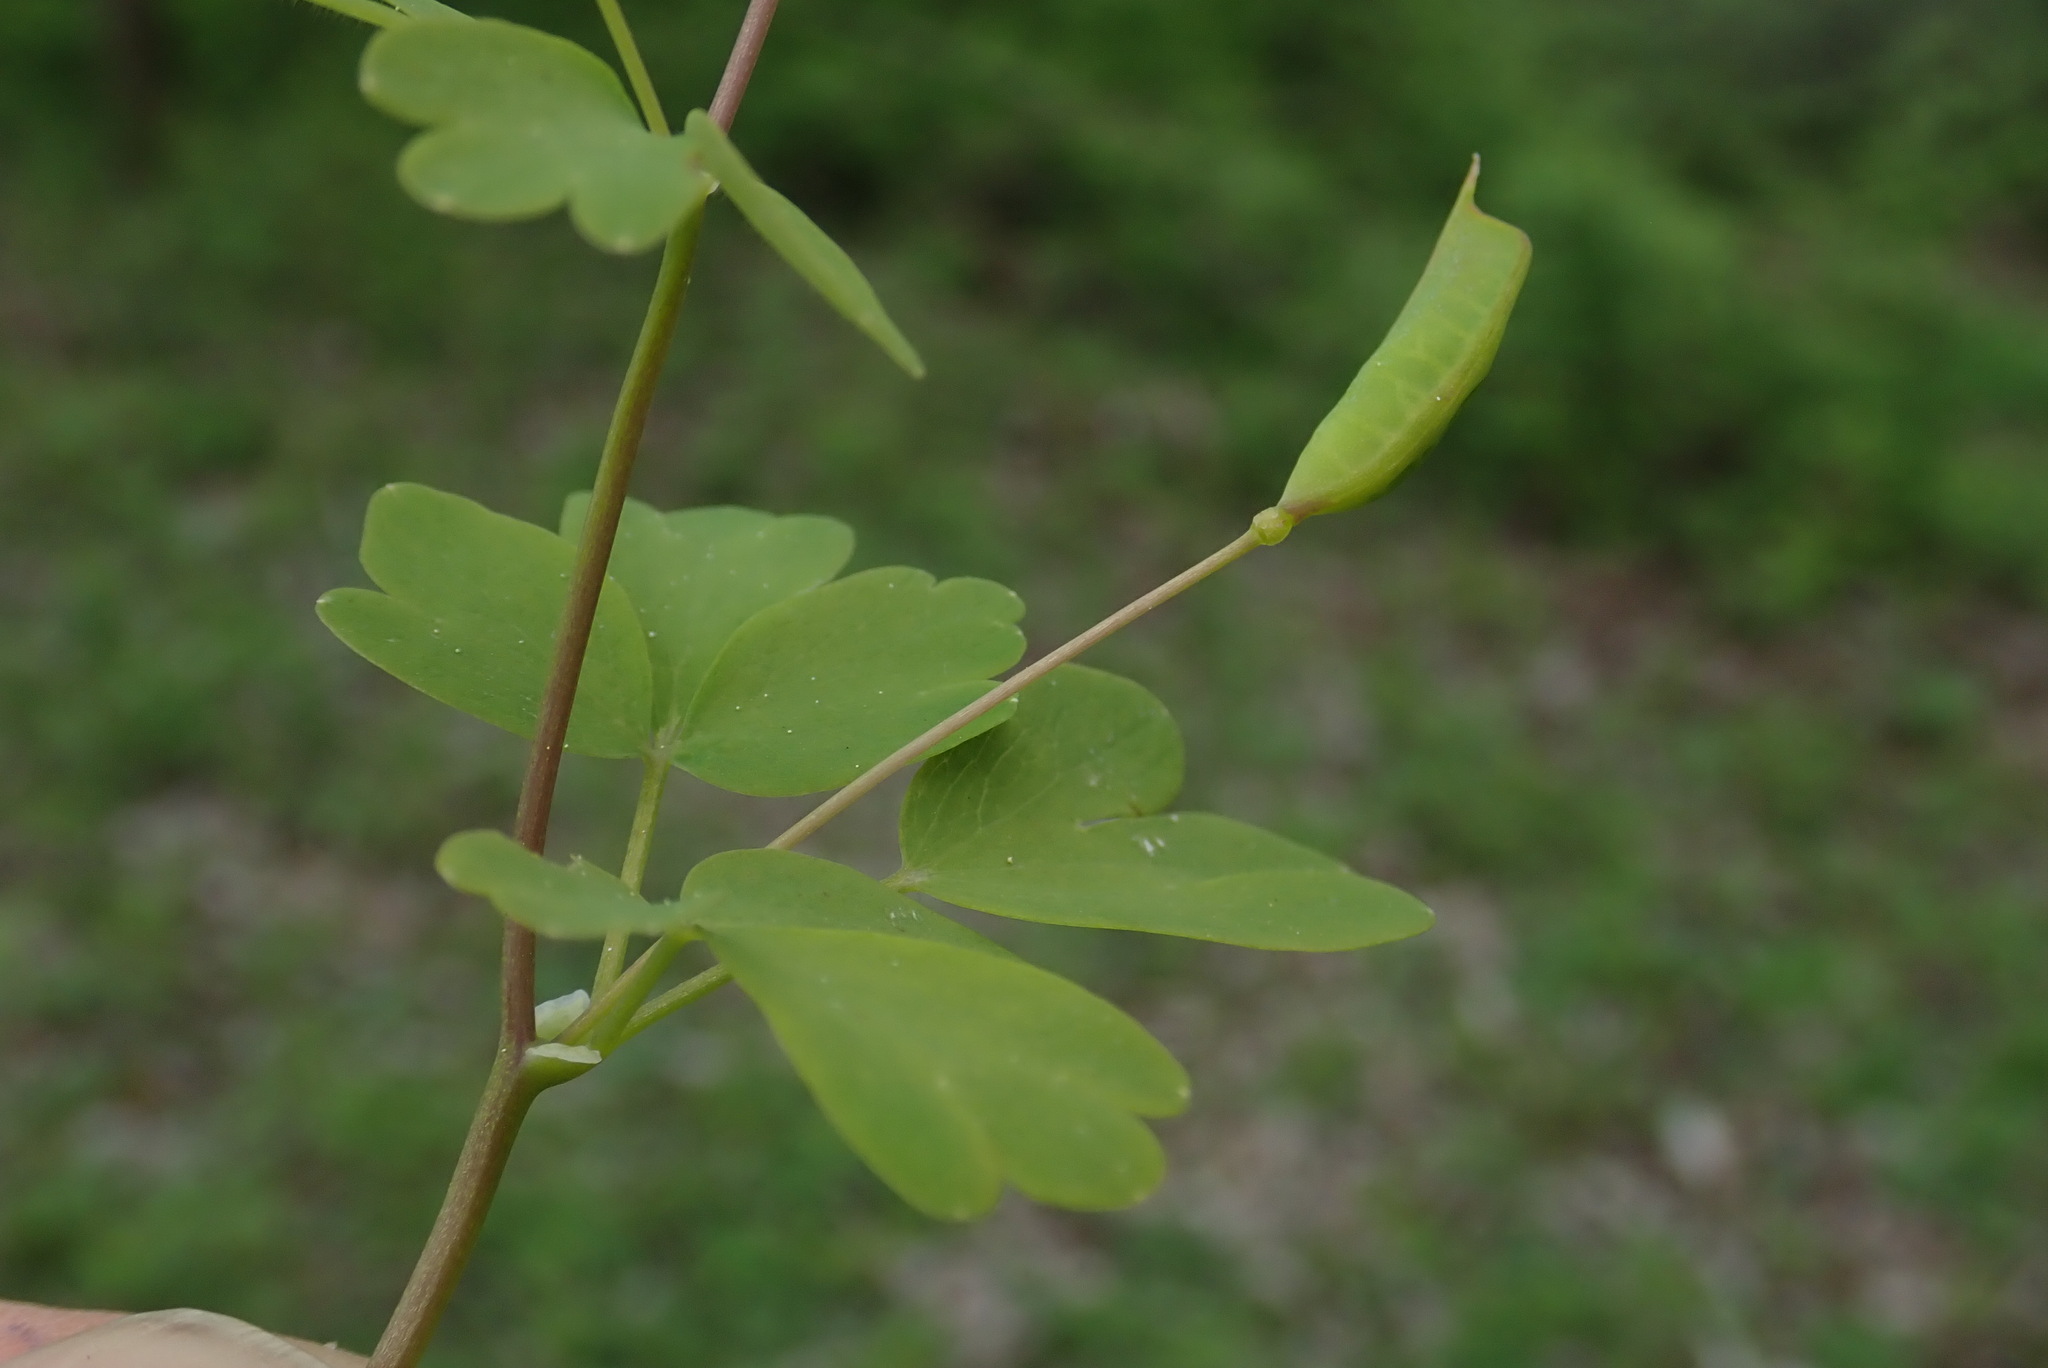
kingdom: Plantae
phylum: Tracheophyta
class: Magnoliopsida
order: Ranunculales
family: Ranunculaceae
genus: Isopyrum
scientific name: Isopyrum thalictroides
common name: Isopyrum
